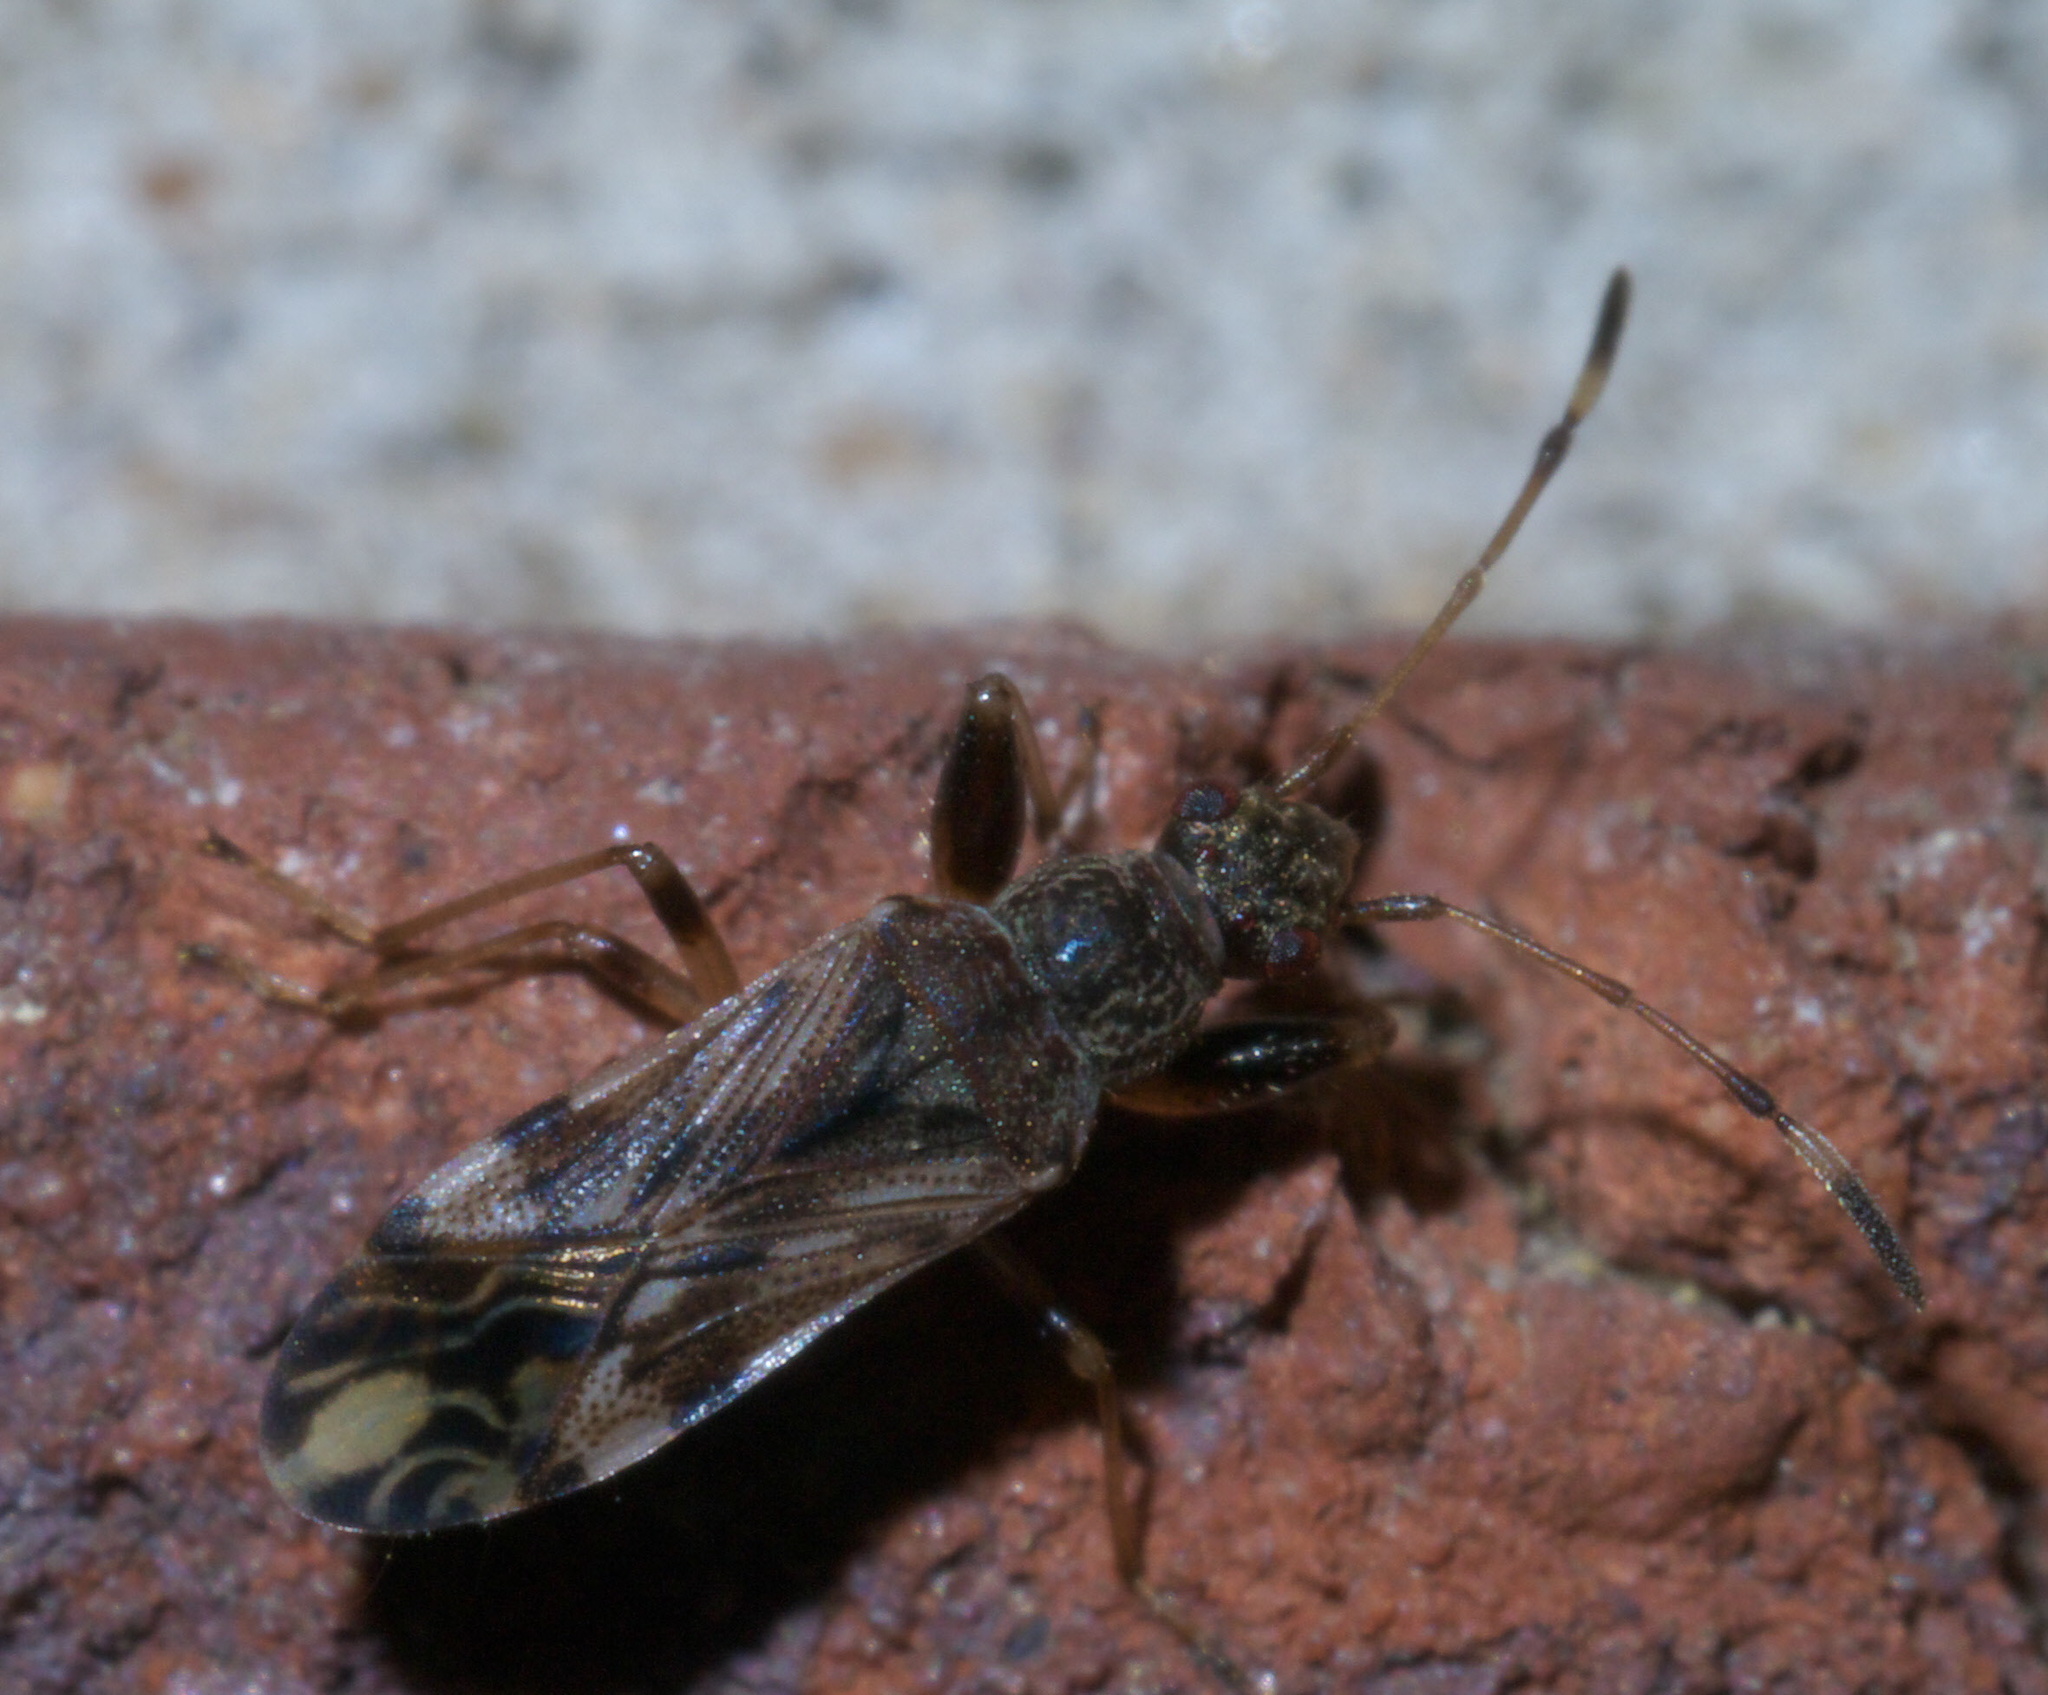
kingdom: Animalia
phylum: Arthropoda
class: Insecta
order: Hemiptera
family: Rhyparochromidae
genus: Neopamera
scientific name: Neopamera albocincta
